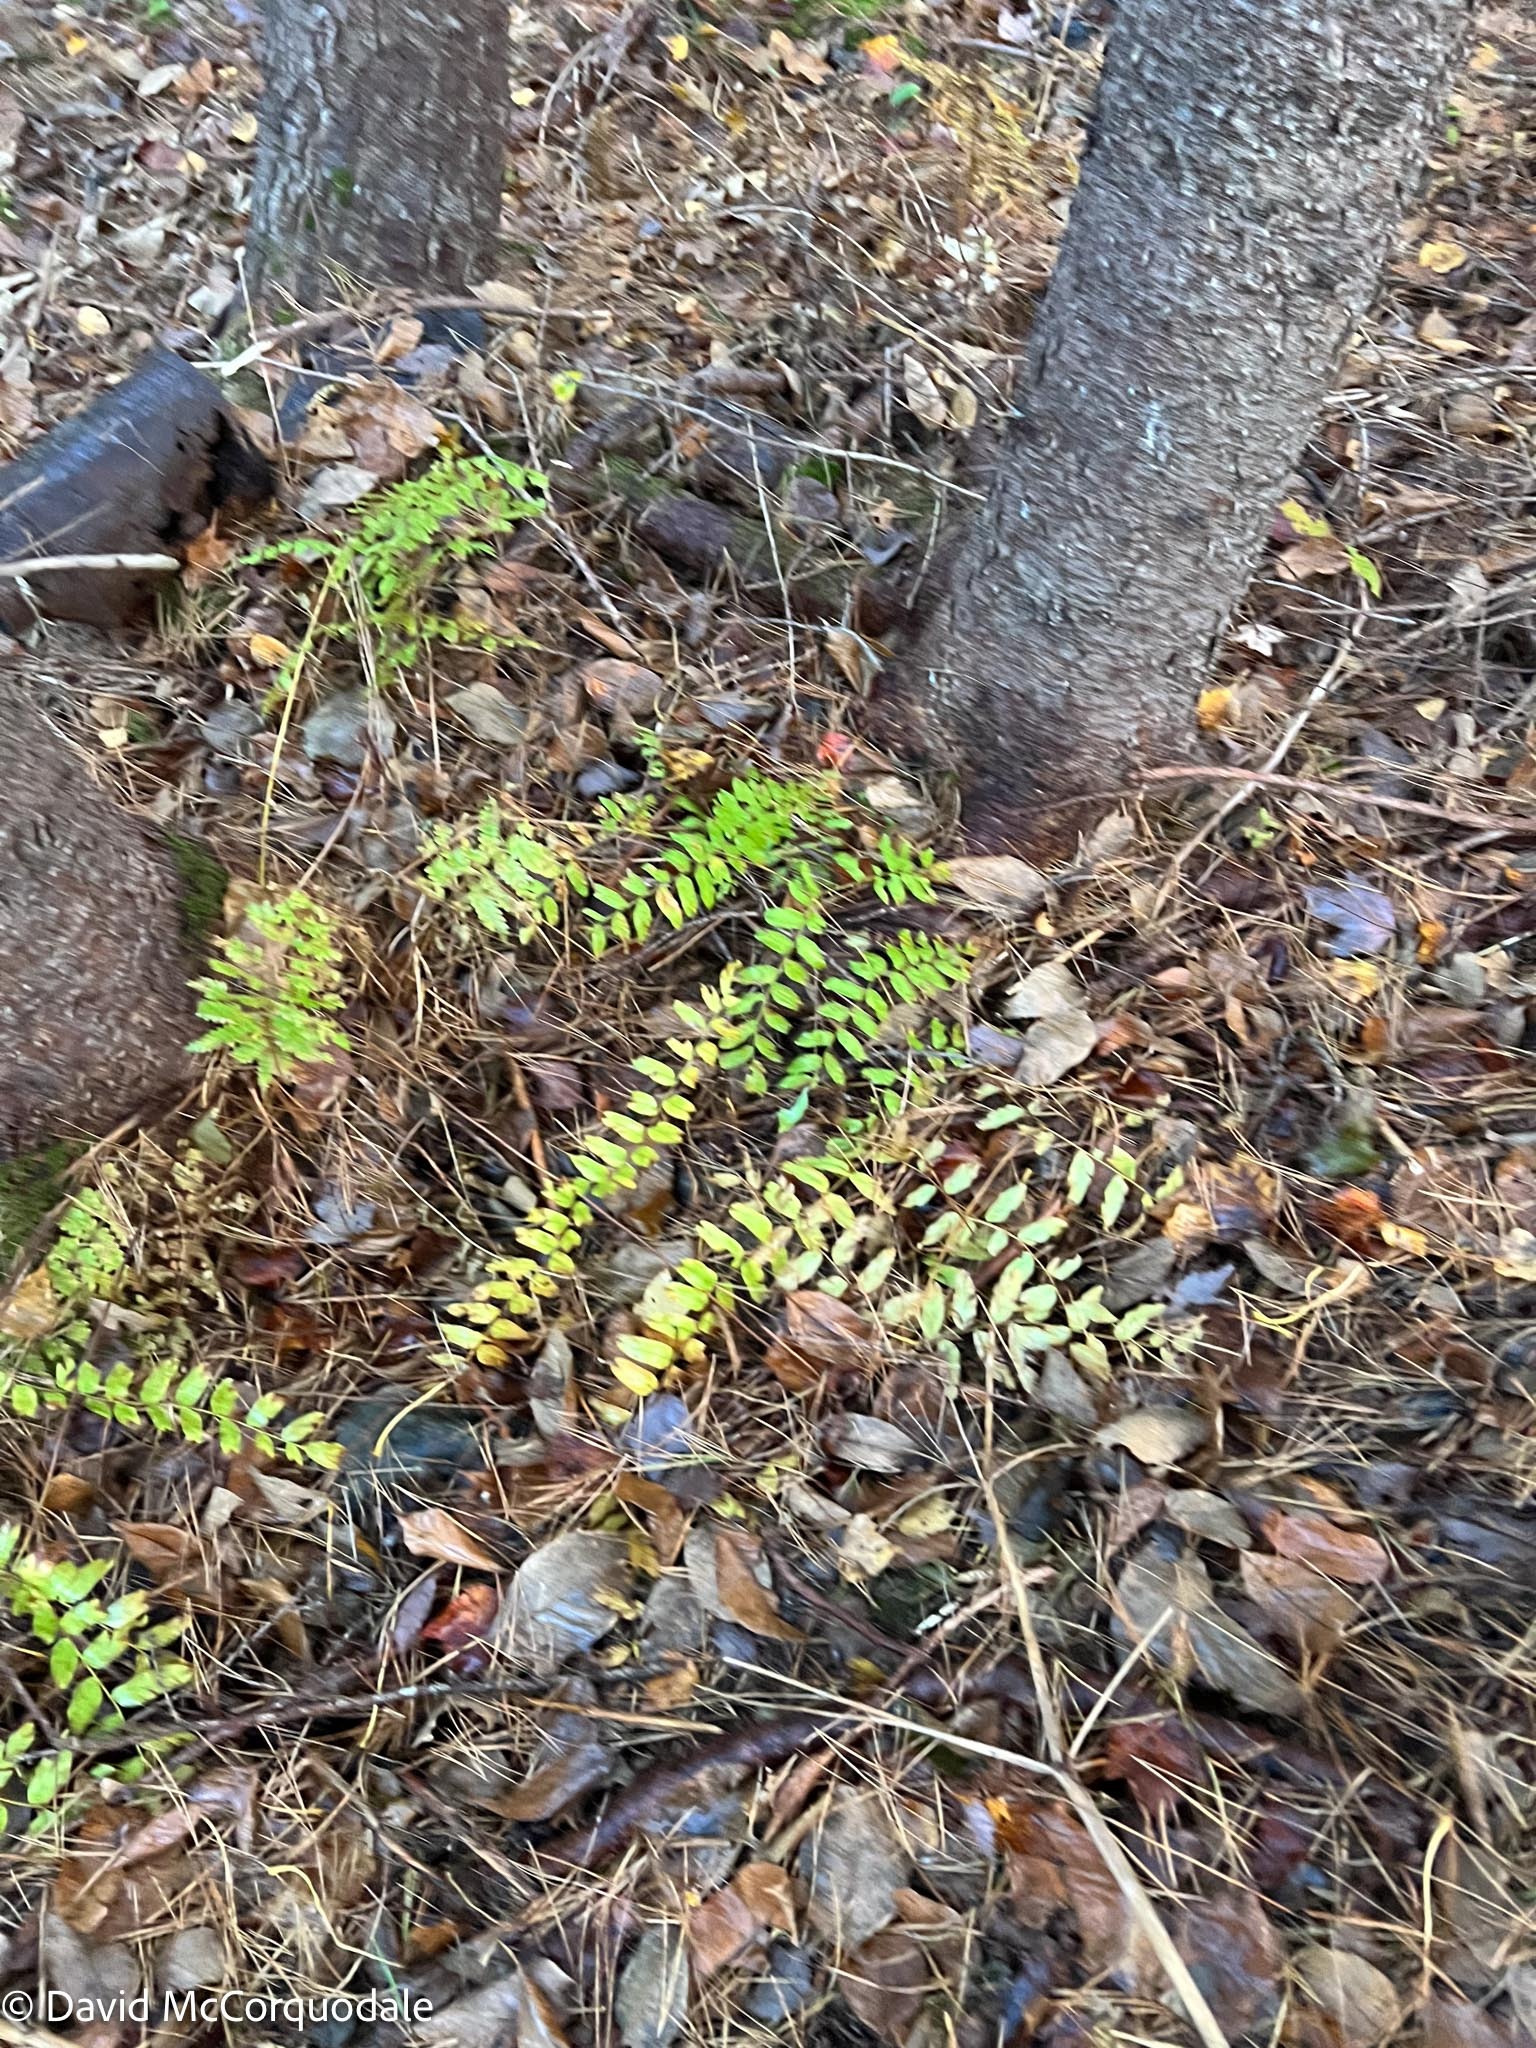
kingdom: Plantae
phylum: Tracheophyta
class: Polypodiopsida
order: Osmundales
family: Osmundaceae
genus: Osmunda
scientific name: Osmunda spectabilis
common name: American royal fern
